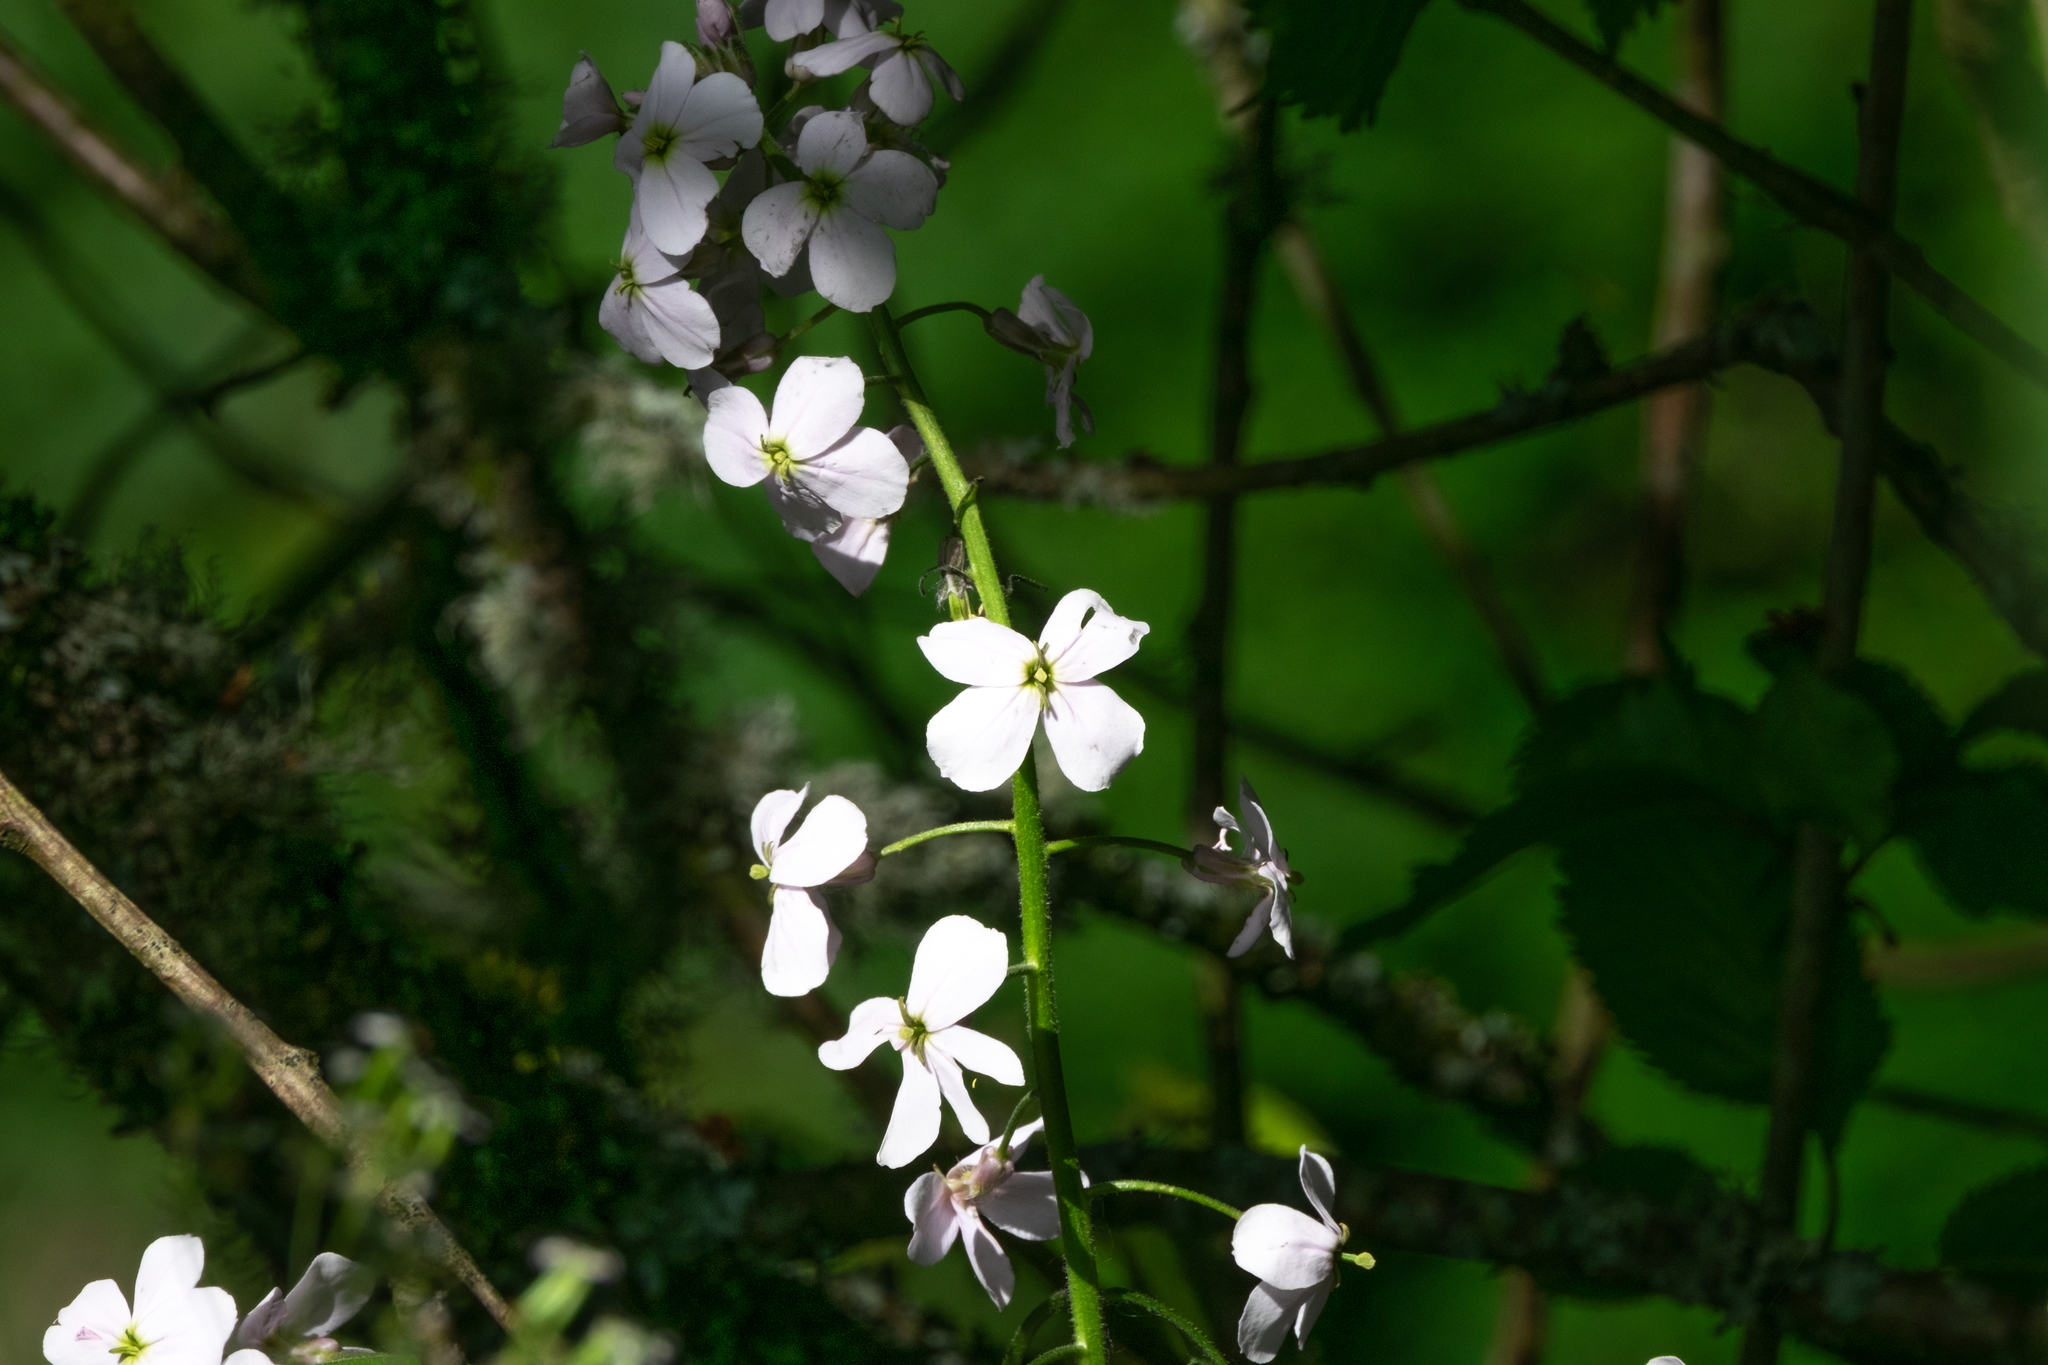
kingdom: Plantae
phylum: Tracheophyta
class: Magnoliopsida
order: Brassicales
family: Brassicaceae
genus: Hesperis
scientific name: Hesperis matronalis
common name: Dame's-violet
